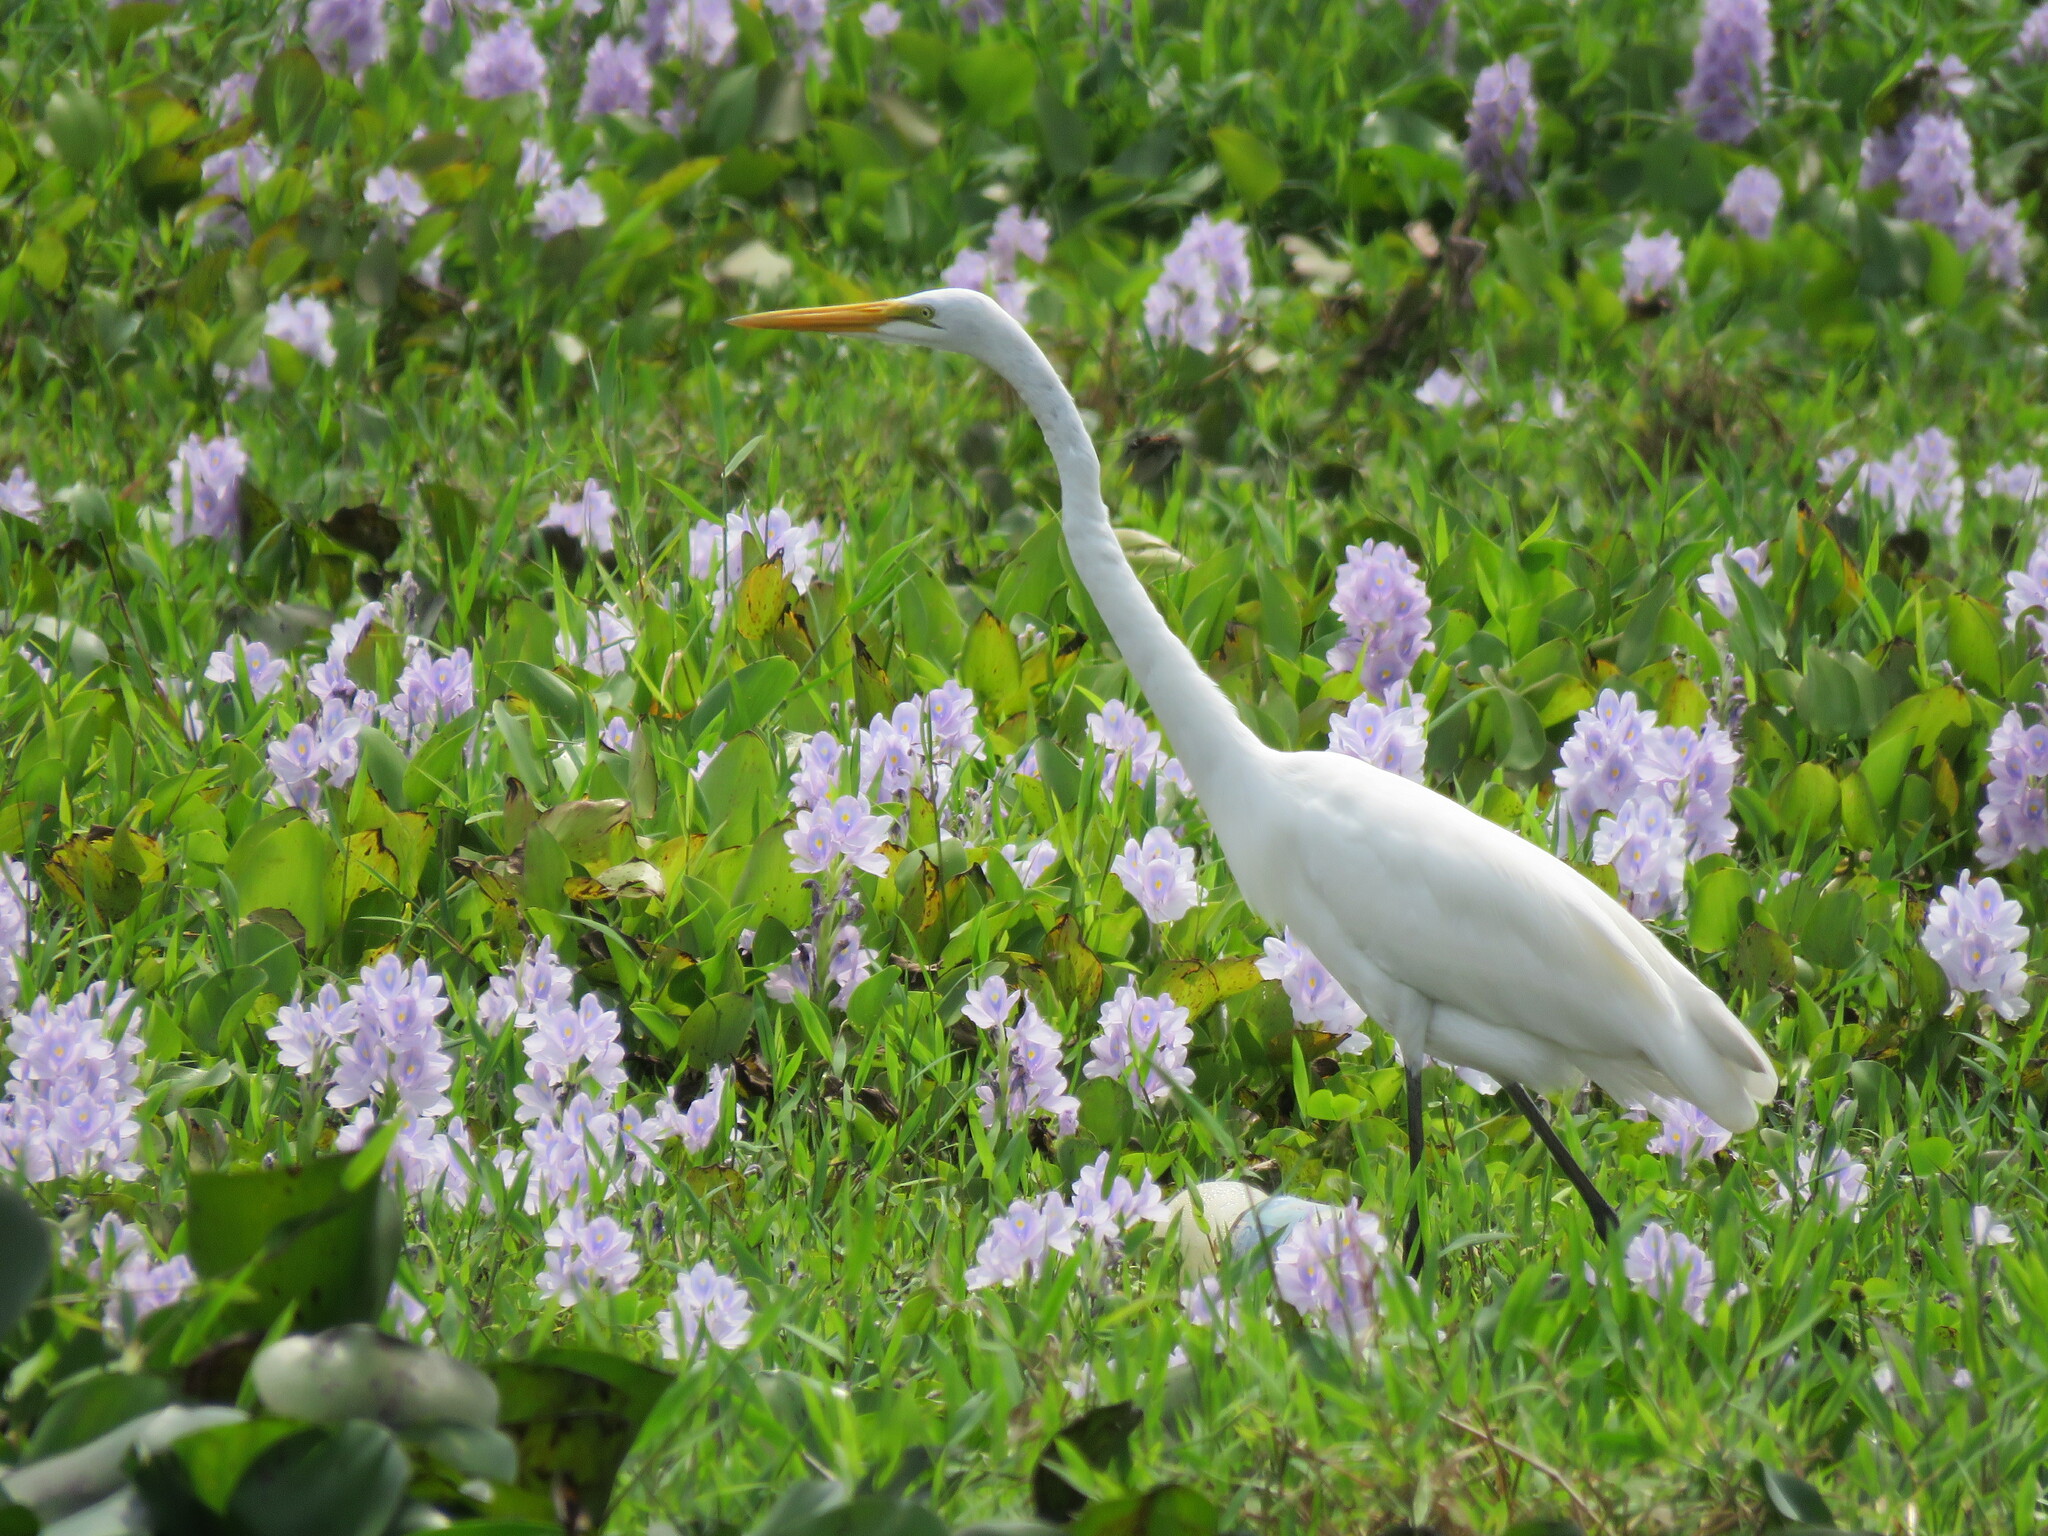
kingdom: Animalia
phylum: Chordata
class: Aves
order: Pelecaniformes
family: Ardeidae
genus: Ardea
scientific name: Ardea alba
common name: Great egret
